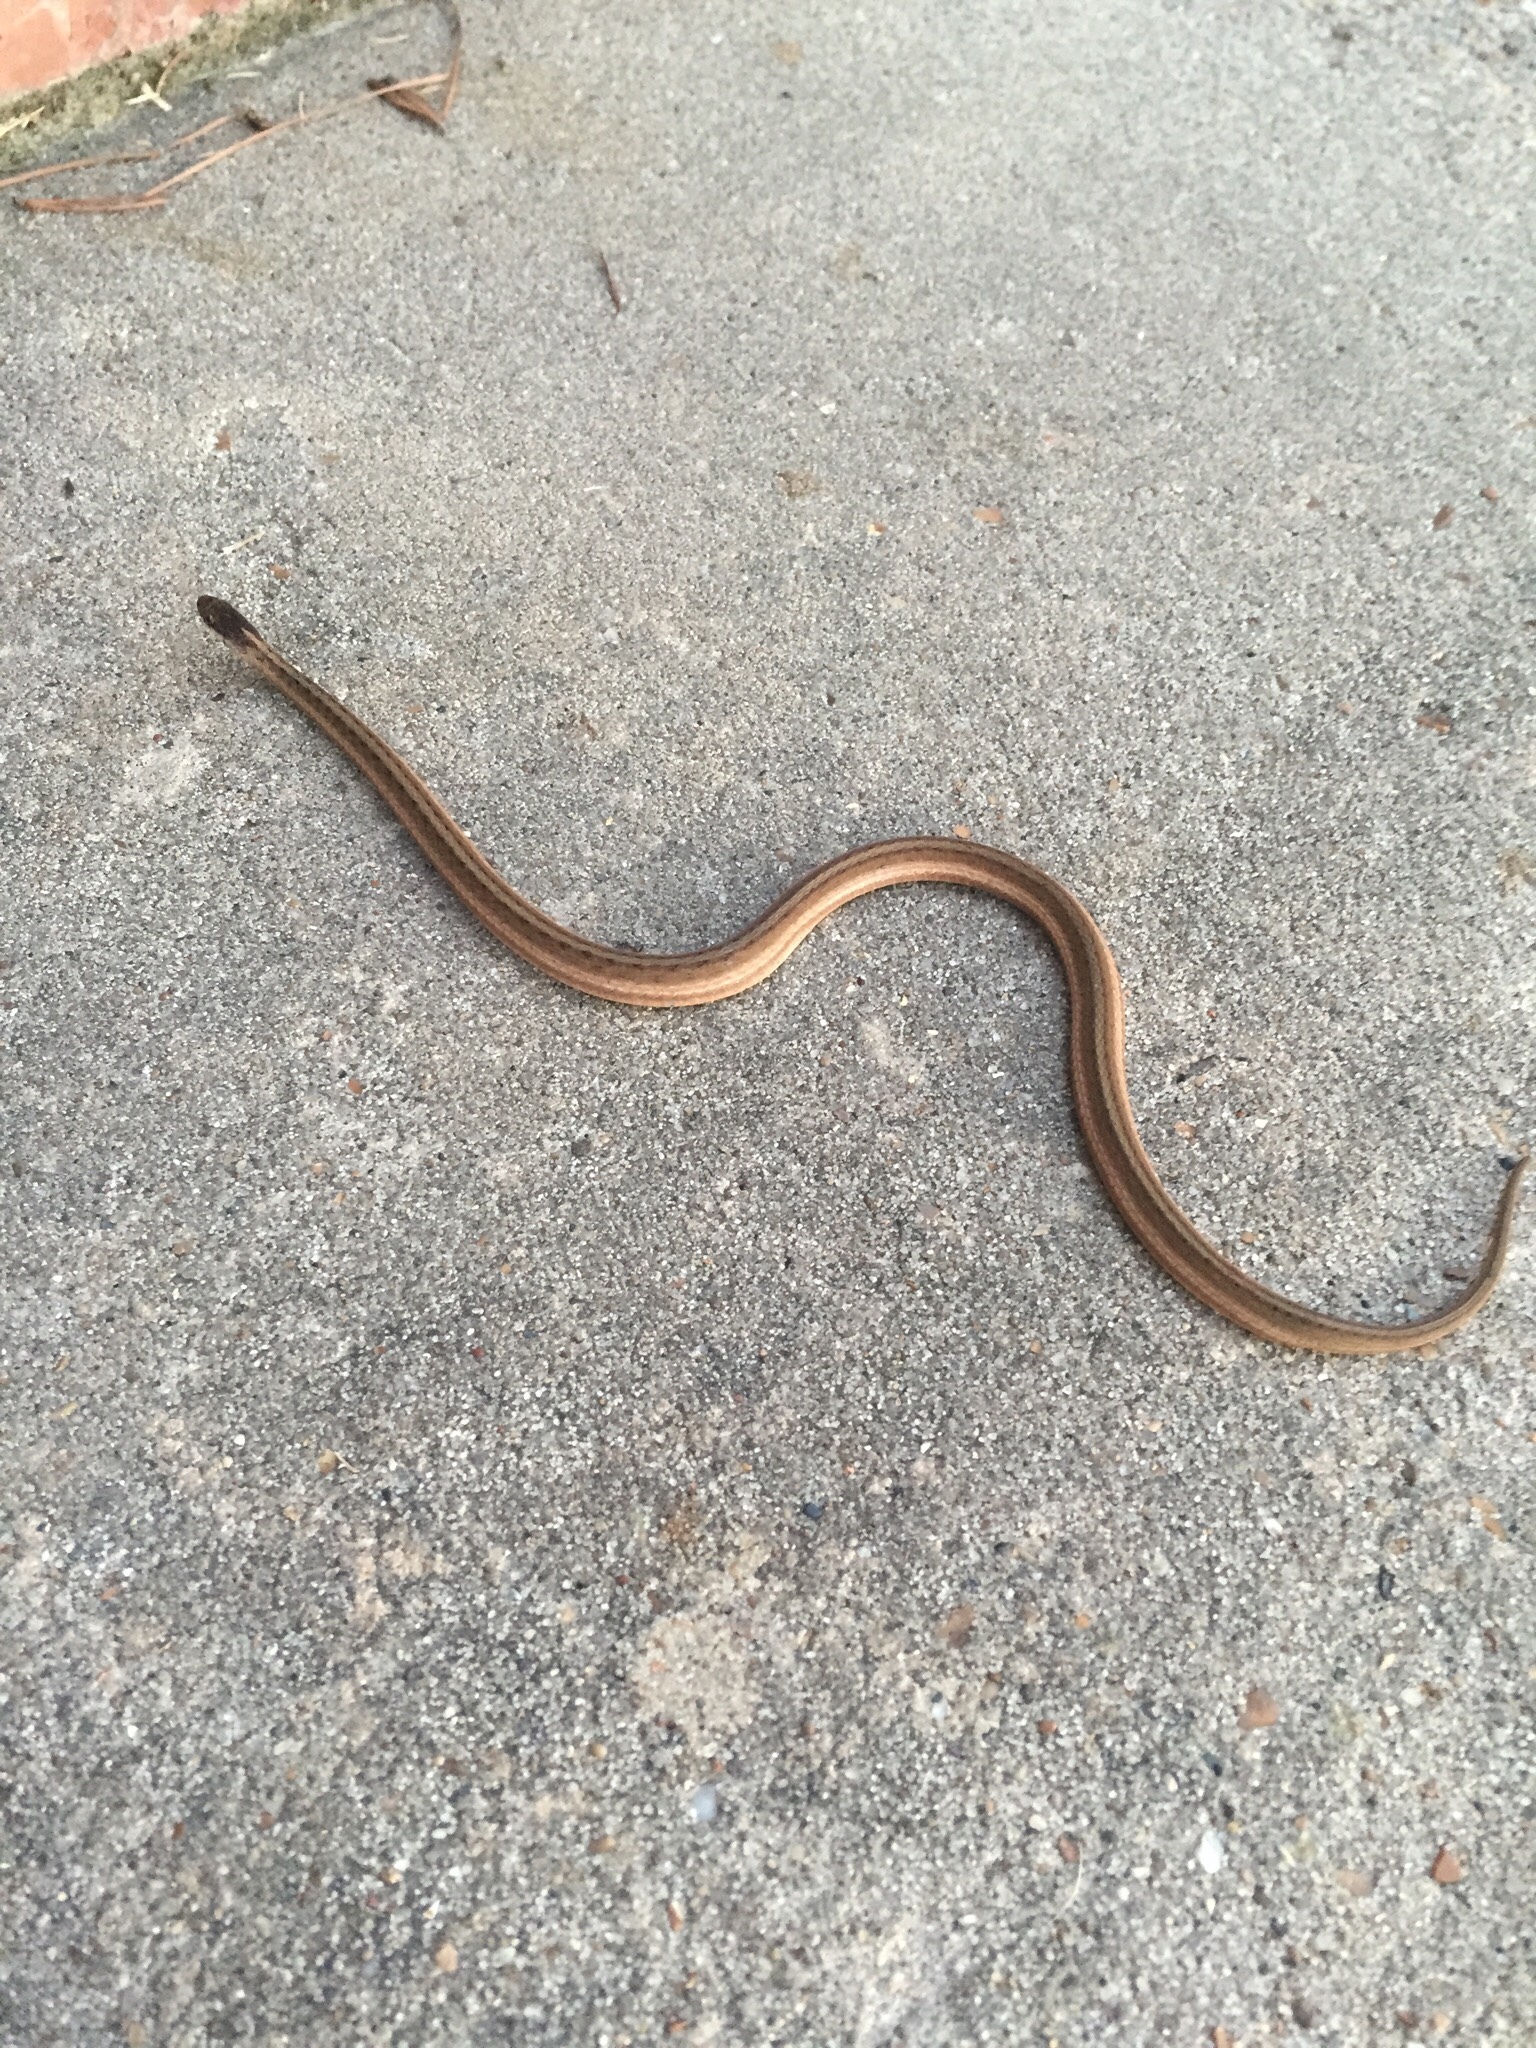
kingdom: Animalia
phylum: Chordata
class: Squamata
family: Colubridae
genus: Storeria
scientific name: Storeria dekayi
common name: (dekay’s) brown snake
